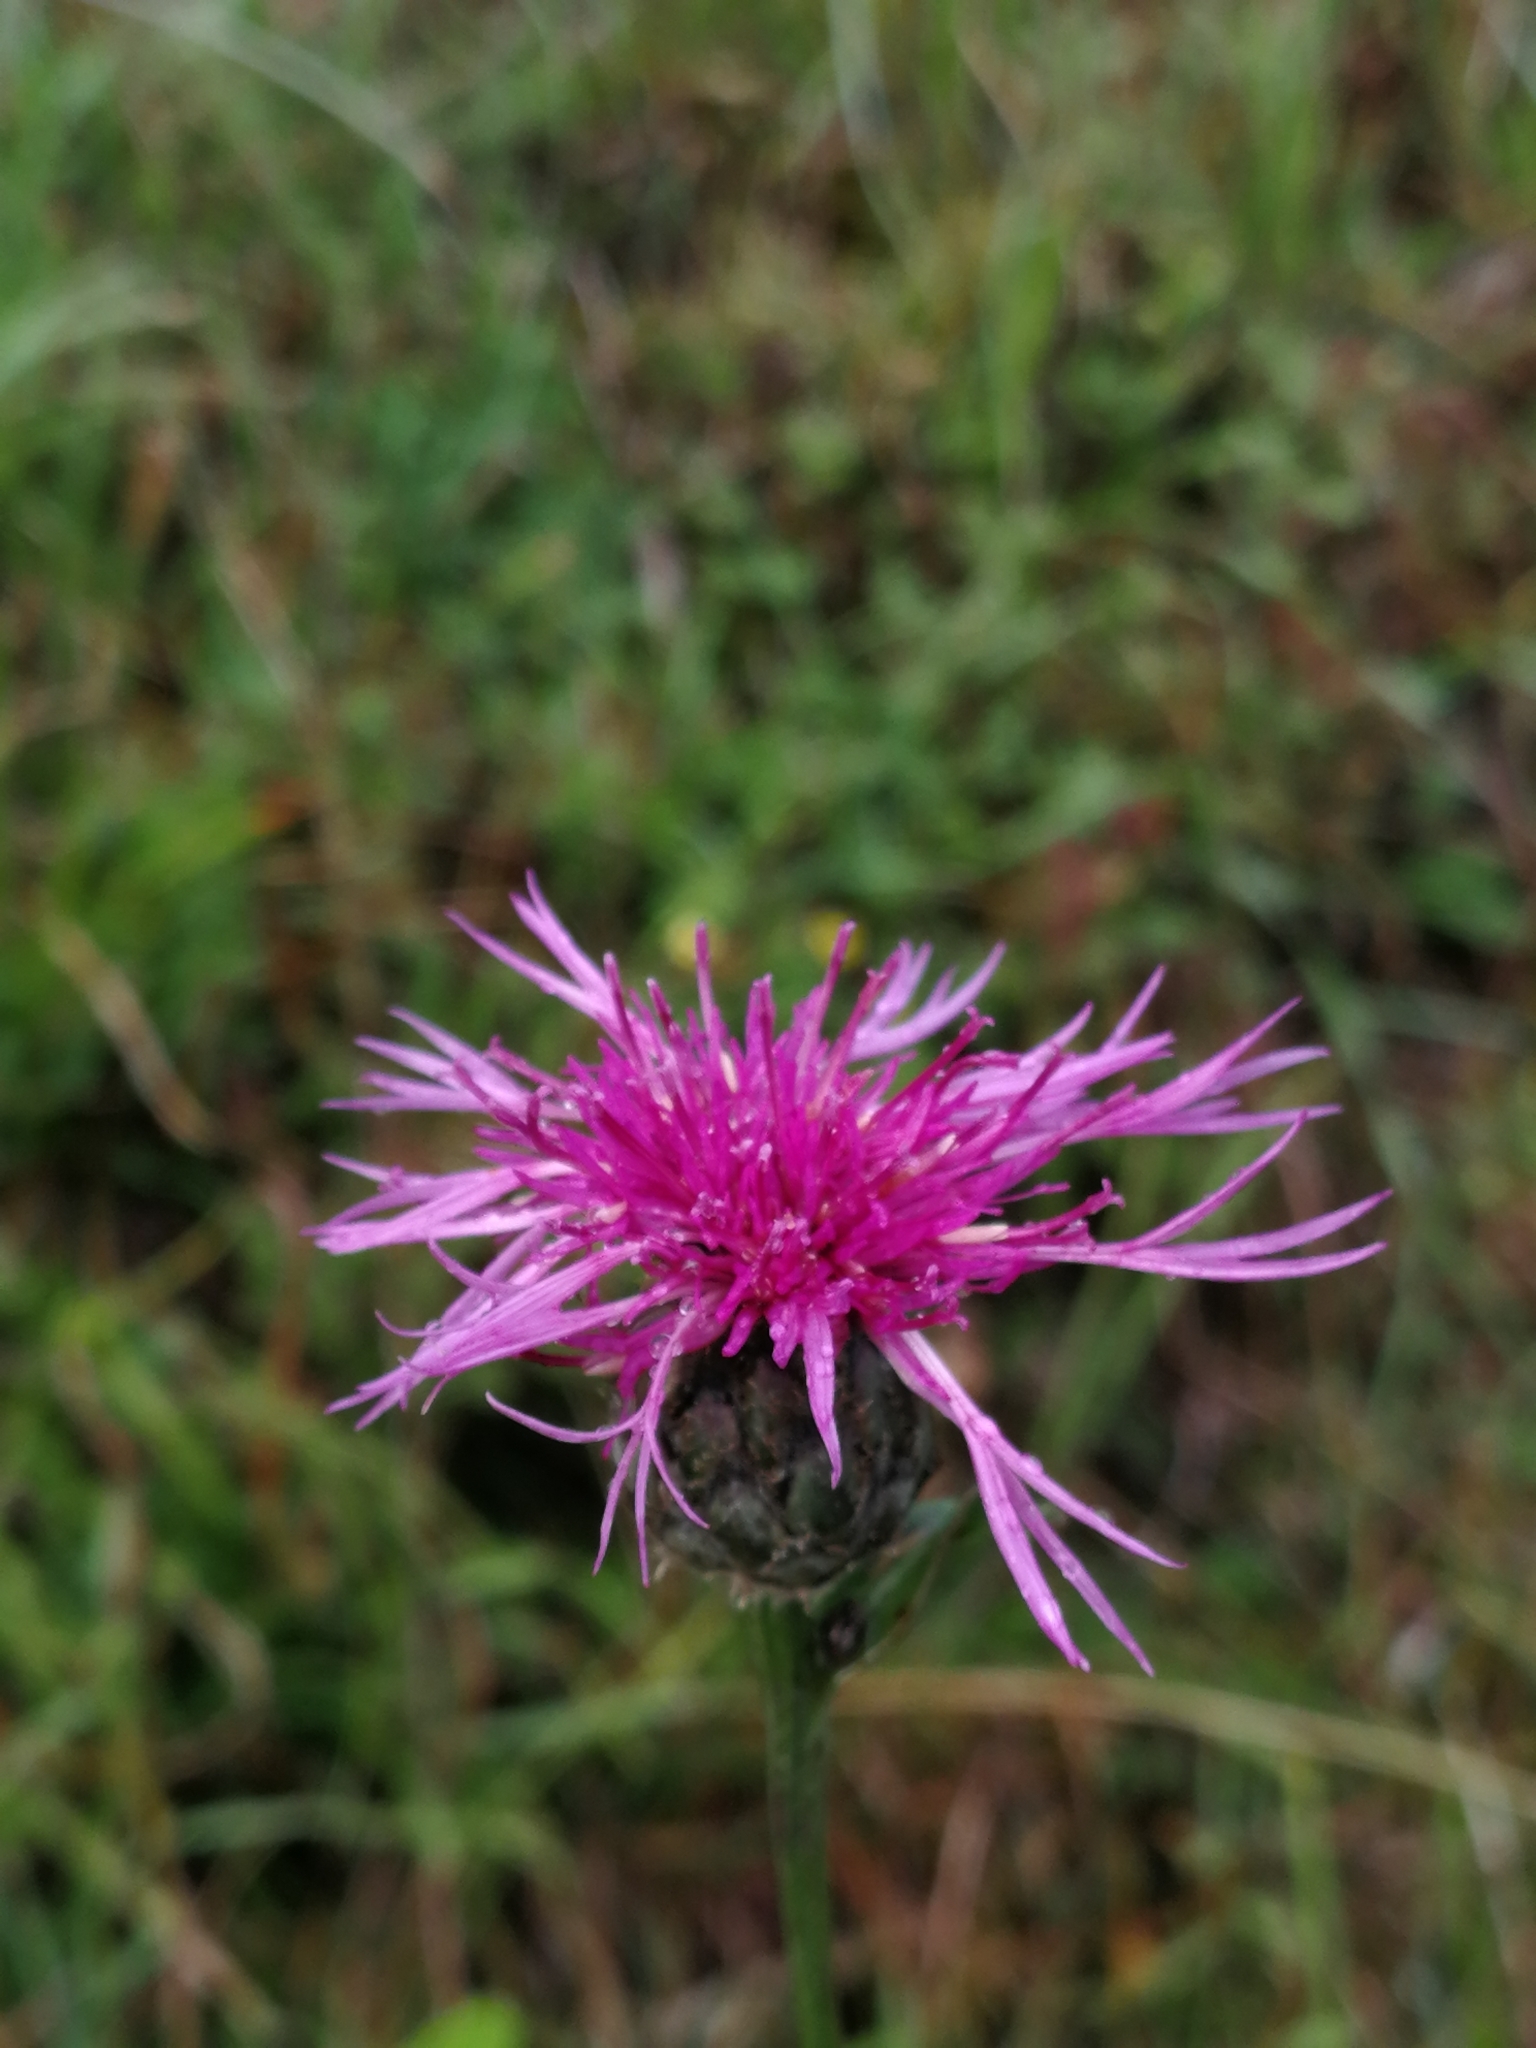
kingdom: Plantae
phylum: Tracheophyta
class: Magnoliopsida
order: Asterales
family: Asteraceae
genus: Centaurea
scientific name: Centaurea scabiosa
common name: Greater knapweed
